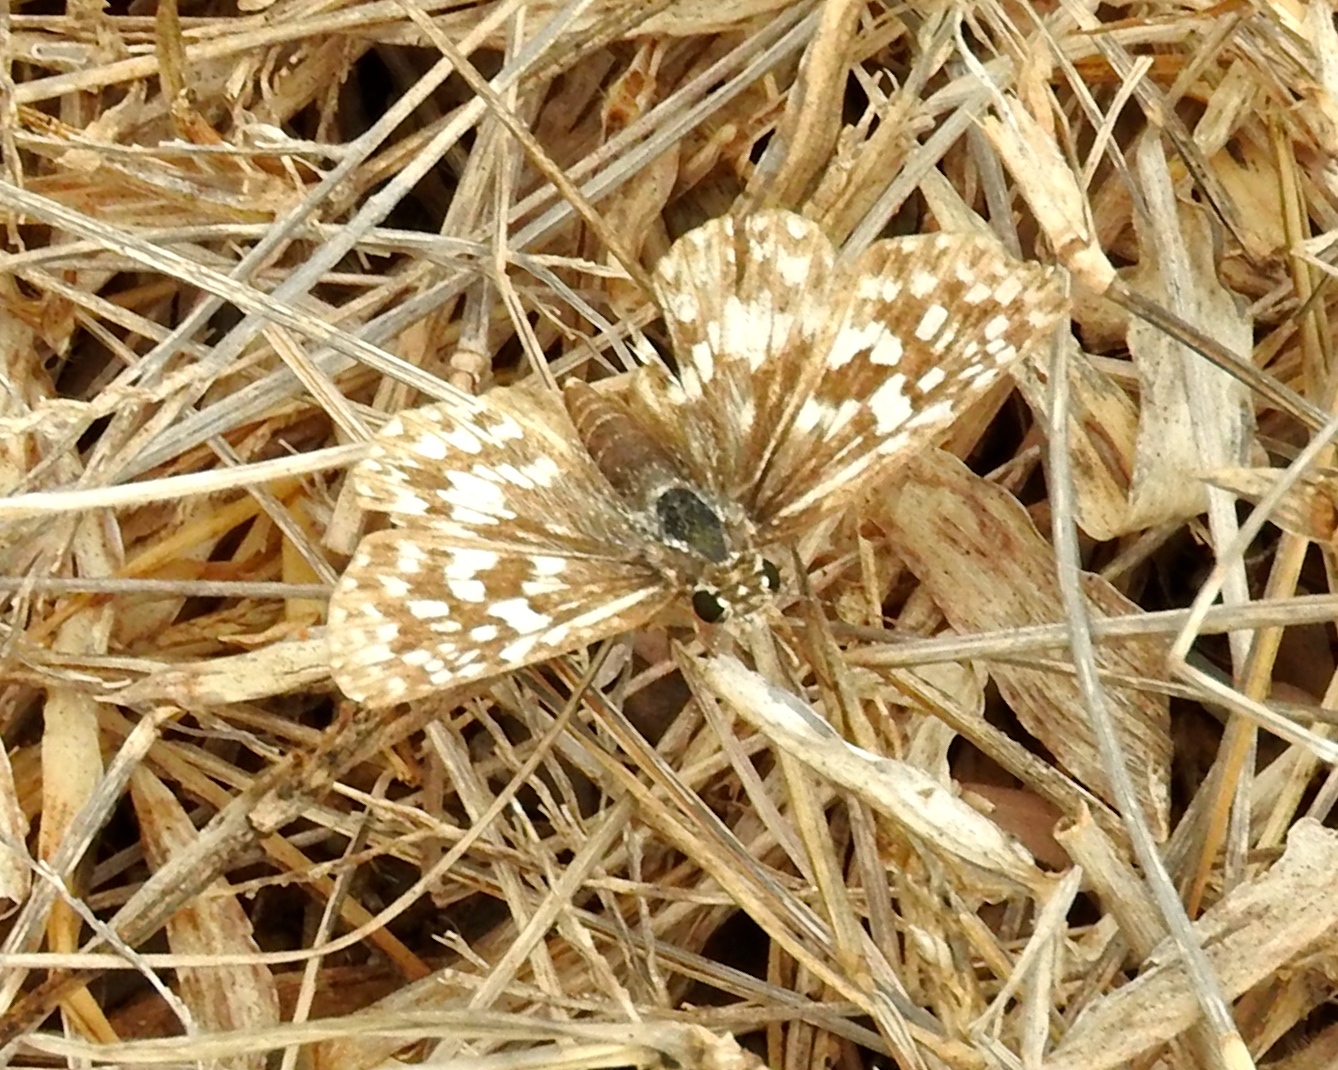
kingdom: Animalia
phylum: Arthropoda
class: Insecta
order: Lepidoptera
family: Hesperiidae
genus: Burnsius
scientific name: Burnsius
